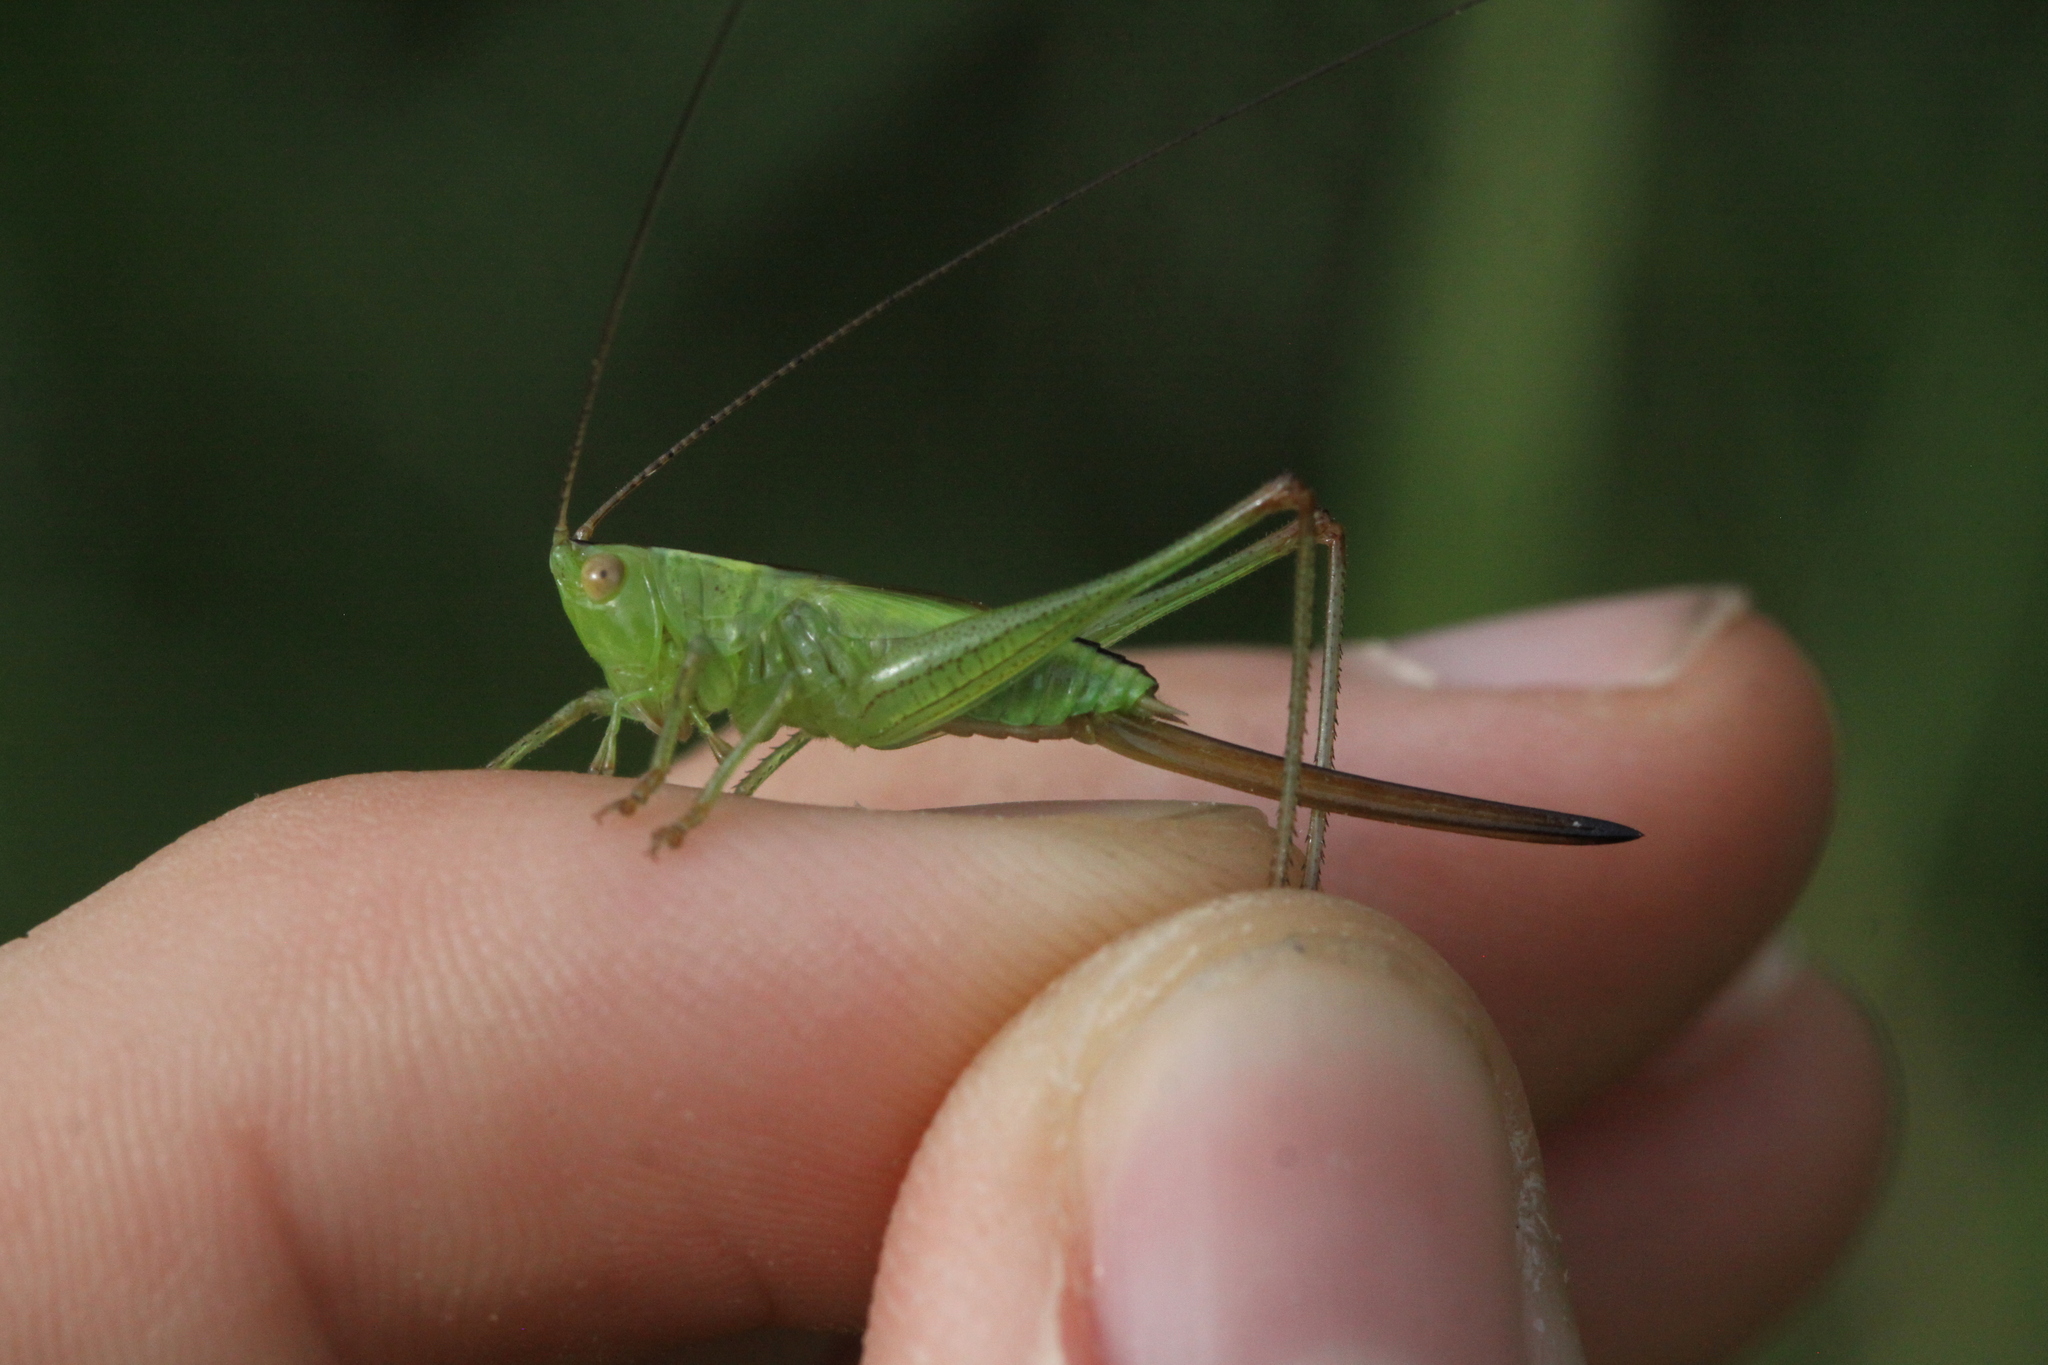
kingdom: Animalia
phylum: Arthropoda
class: Insecta
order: Orthoptera
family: Tettigoniidae
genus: Conocephalus
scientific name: Conocephalus fuscus
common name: Long-winged conehead
